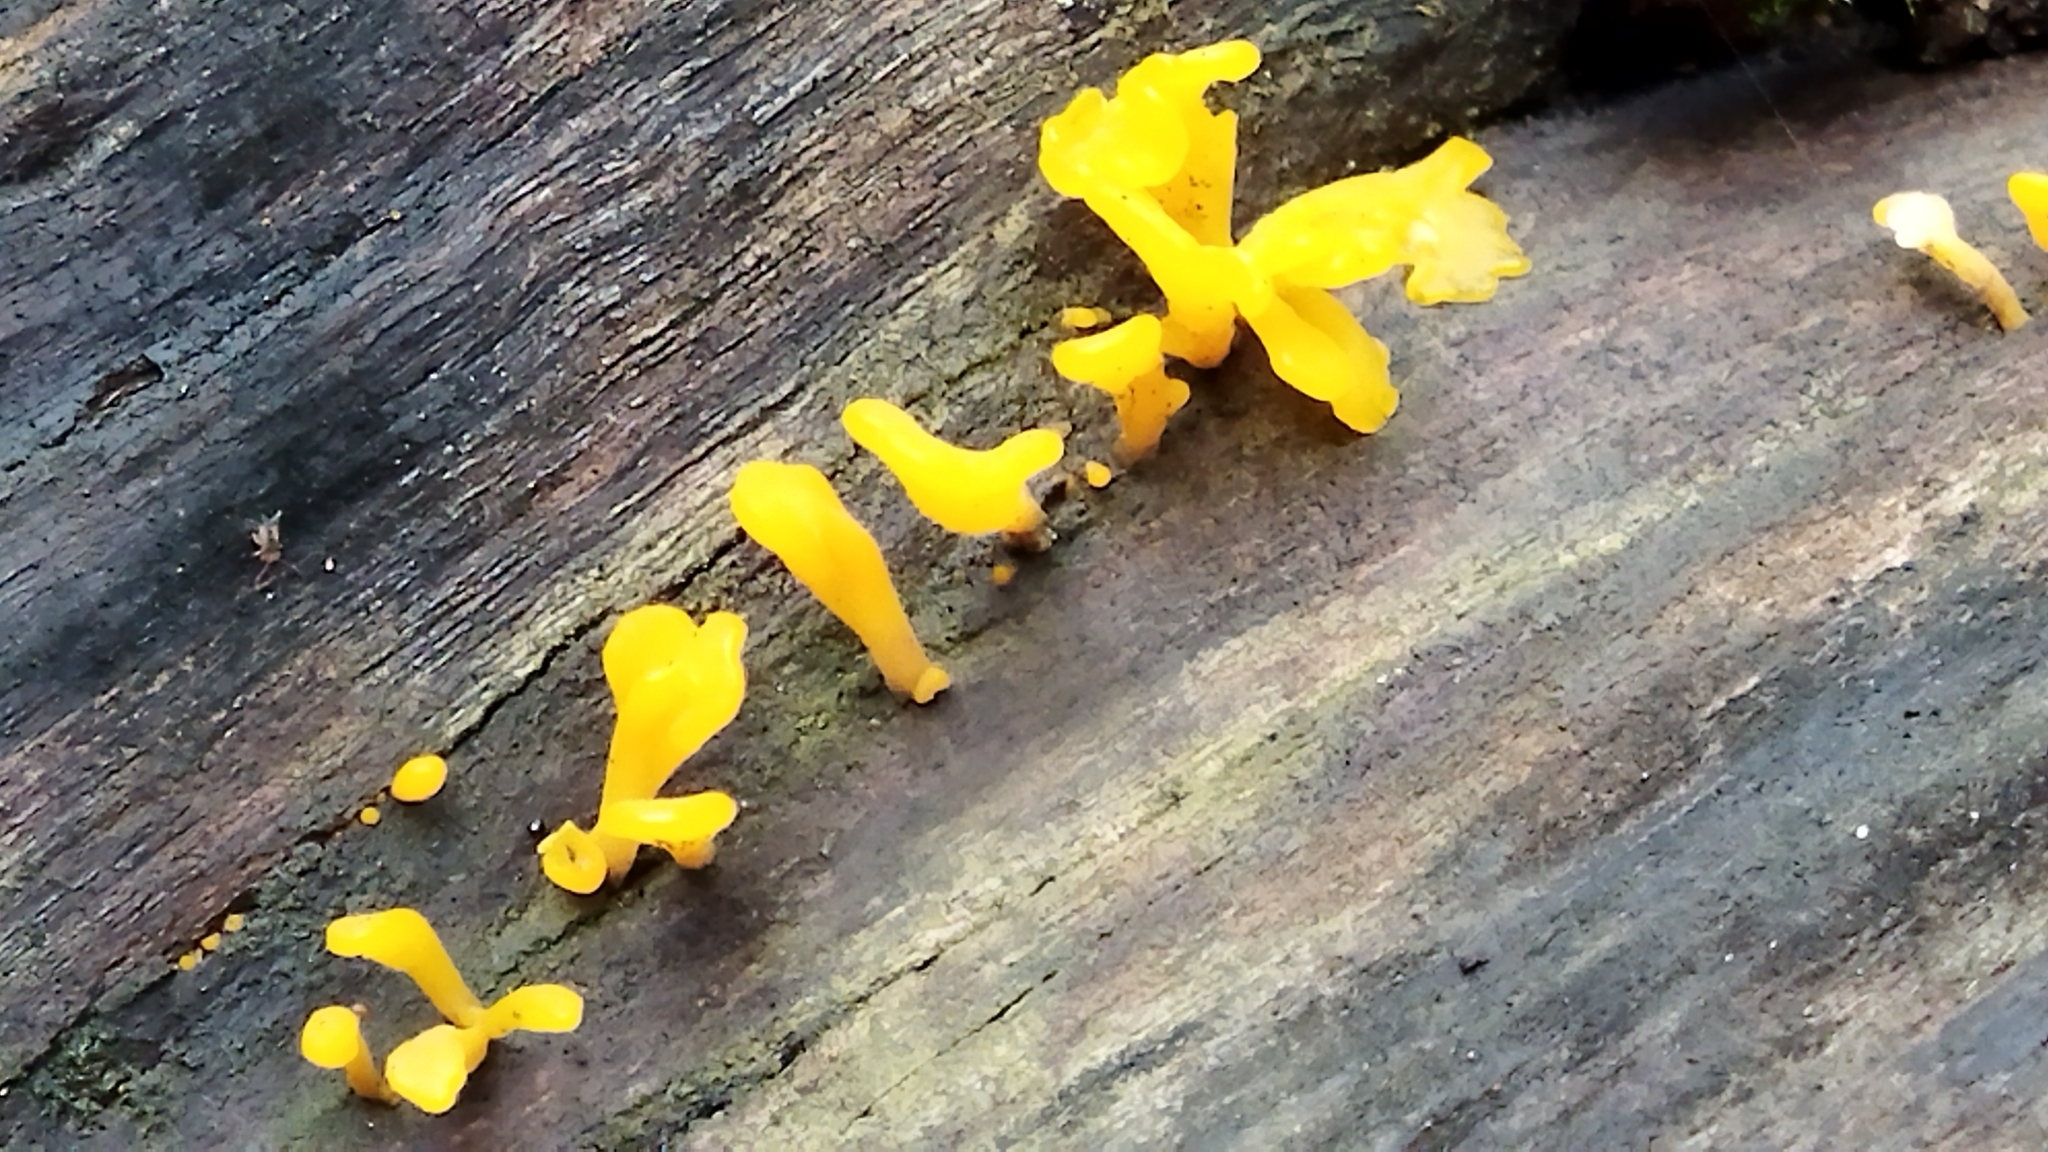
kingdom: Fungi
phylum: Basidiomycota
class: Dacrymycetes
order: Dacrymycetales
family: Dacrymycetaceae
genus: Dacrymyces
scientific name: Dacrymyces spathularius
